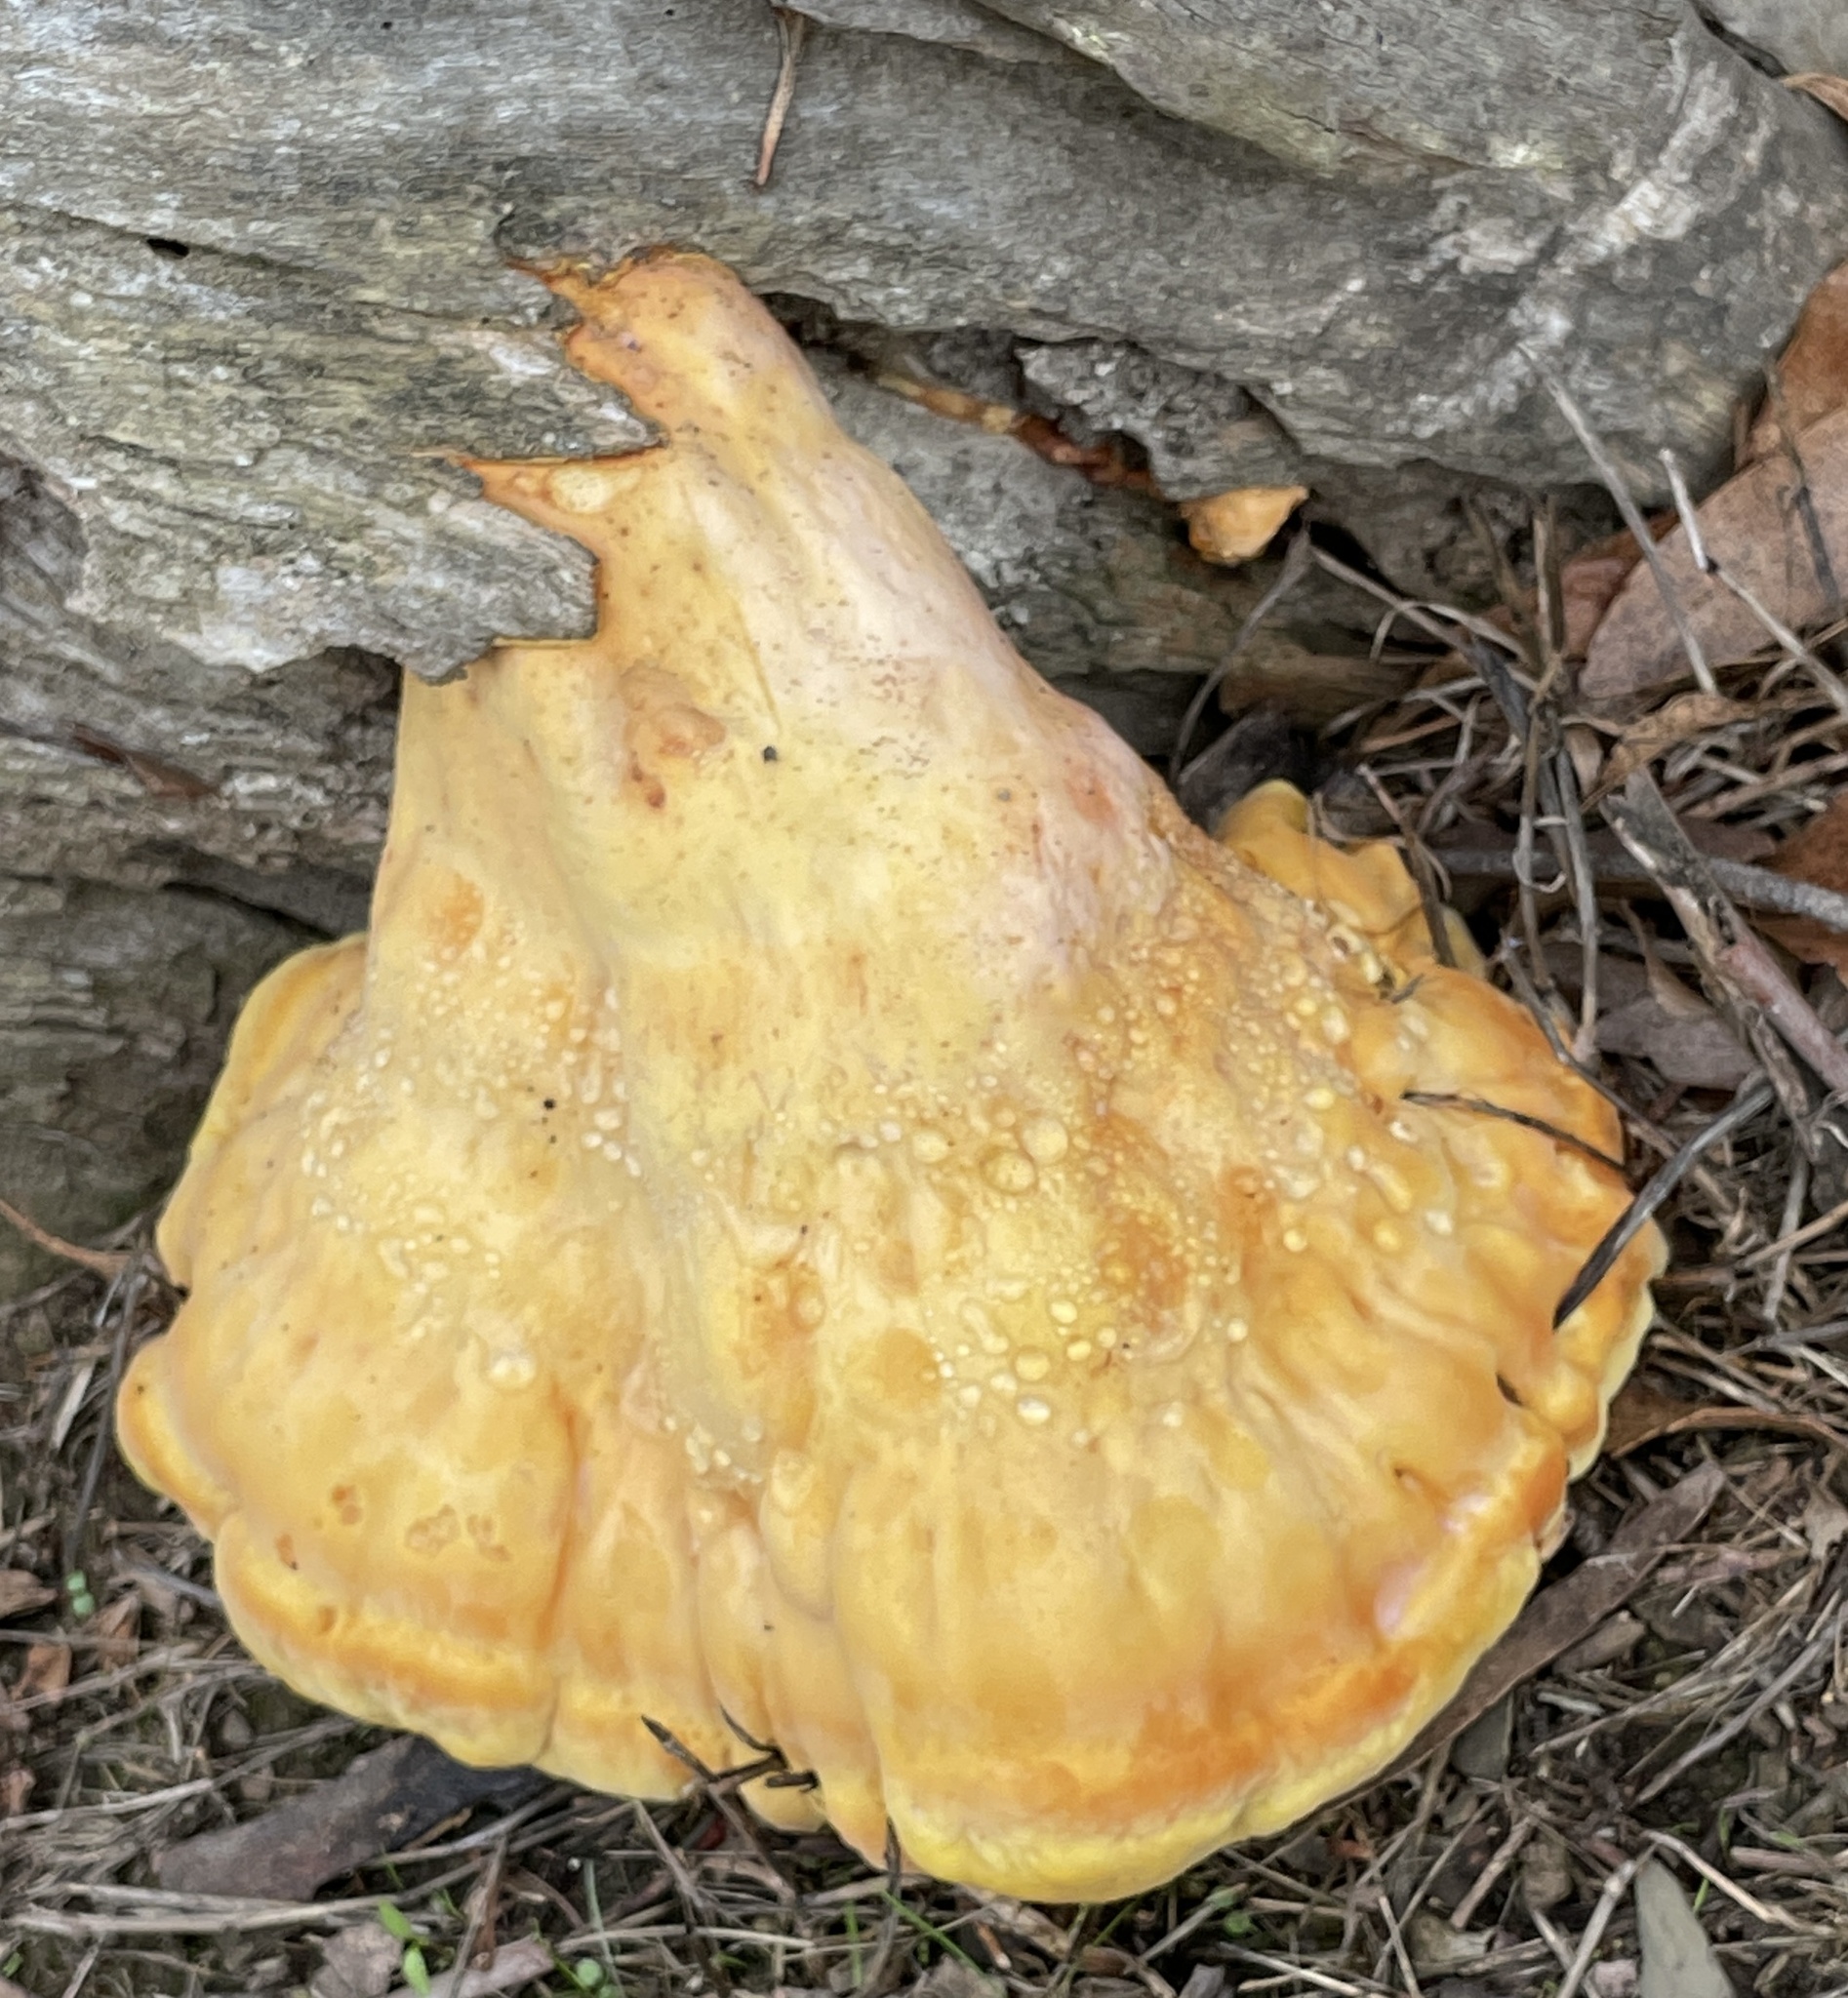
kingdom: Fungi
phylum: Basidiomycota
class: Agaricomycetes
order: Polyporales
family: Laetiporaceae
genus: Laetiporus
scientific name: Laetiporus gilbertsonii
